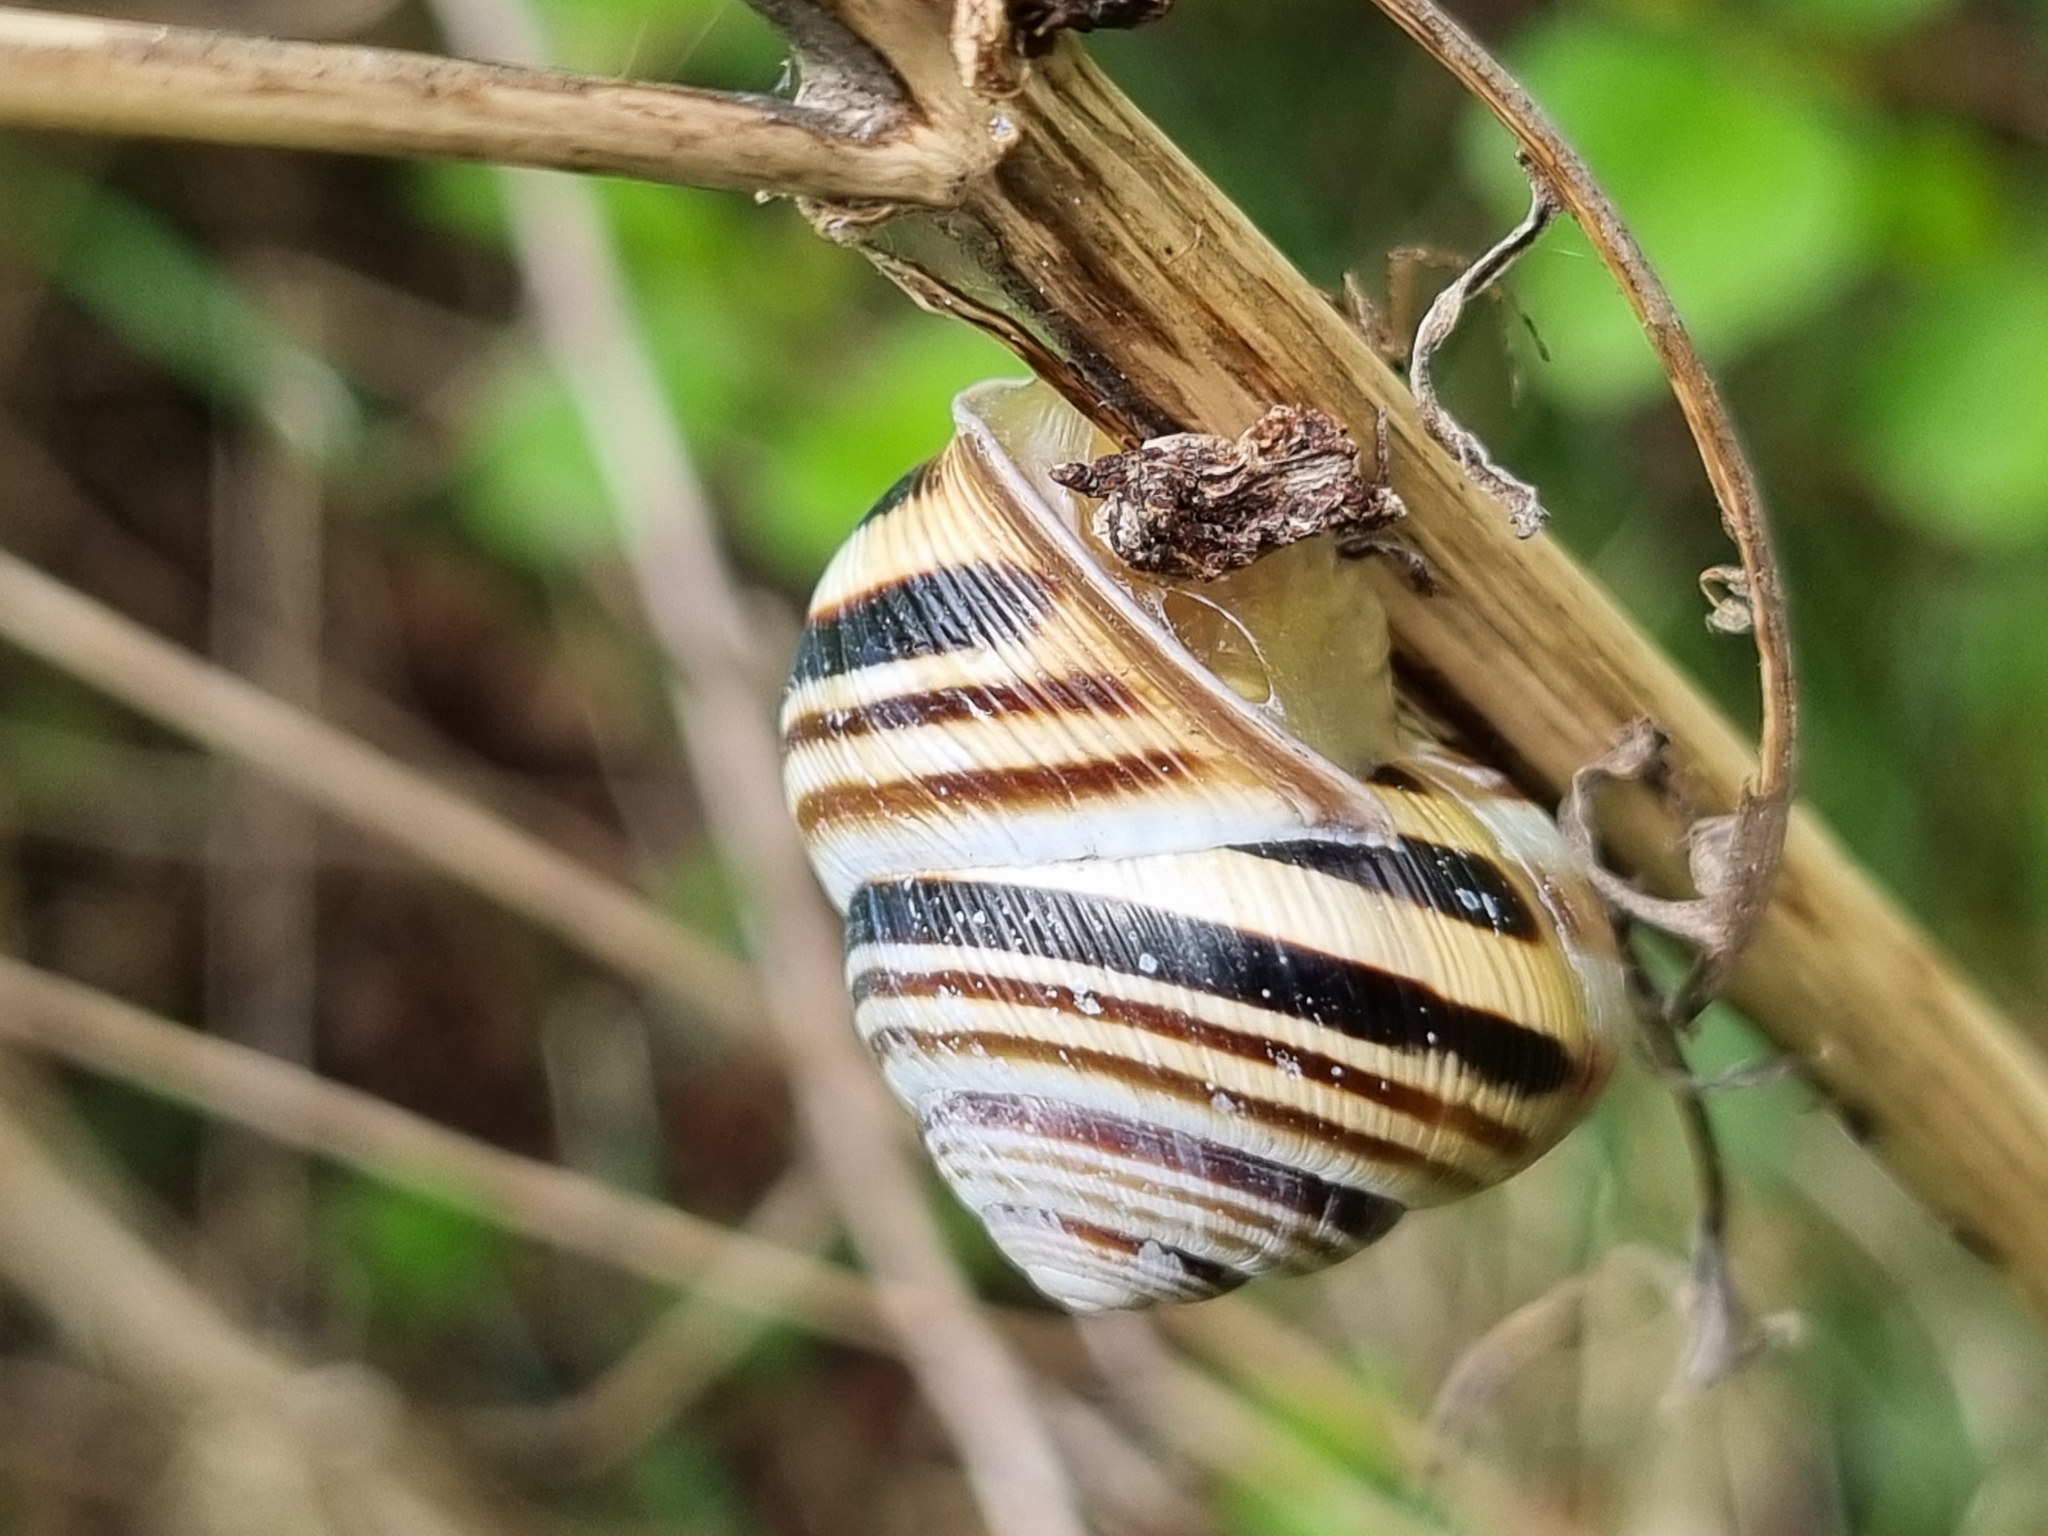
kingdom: Animalia
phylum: Mollusca
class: Gastropoda
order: Stylommatophora
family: Helicidae
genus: Caucasotachea
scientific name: Caucasotachea vindobonensis
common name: European helicid land snail
